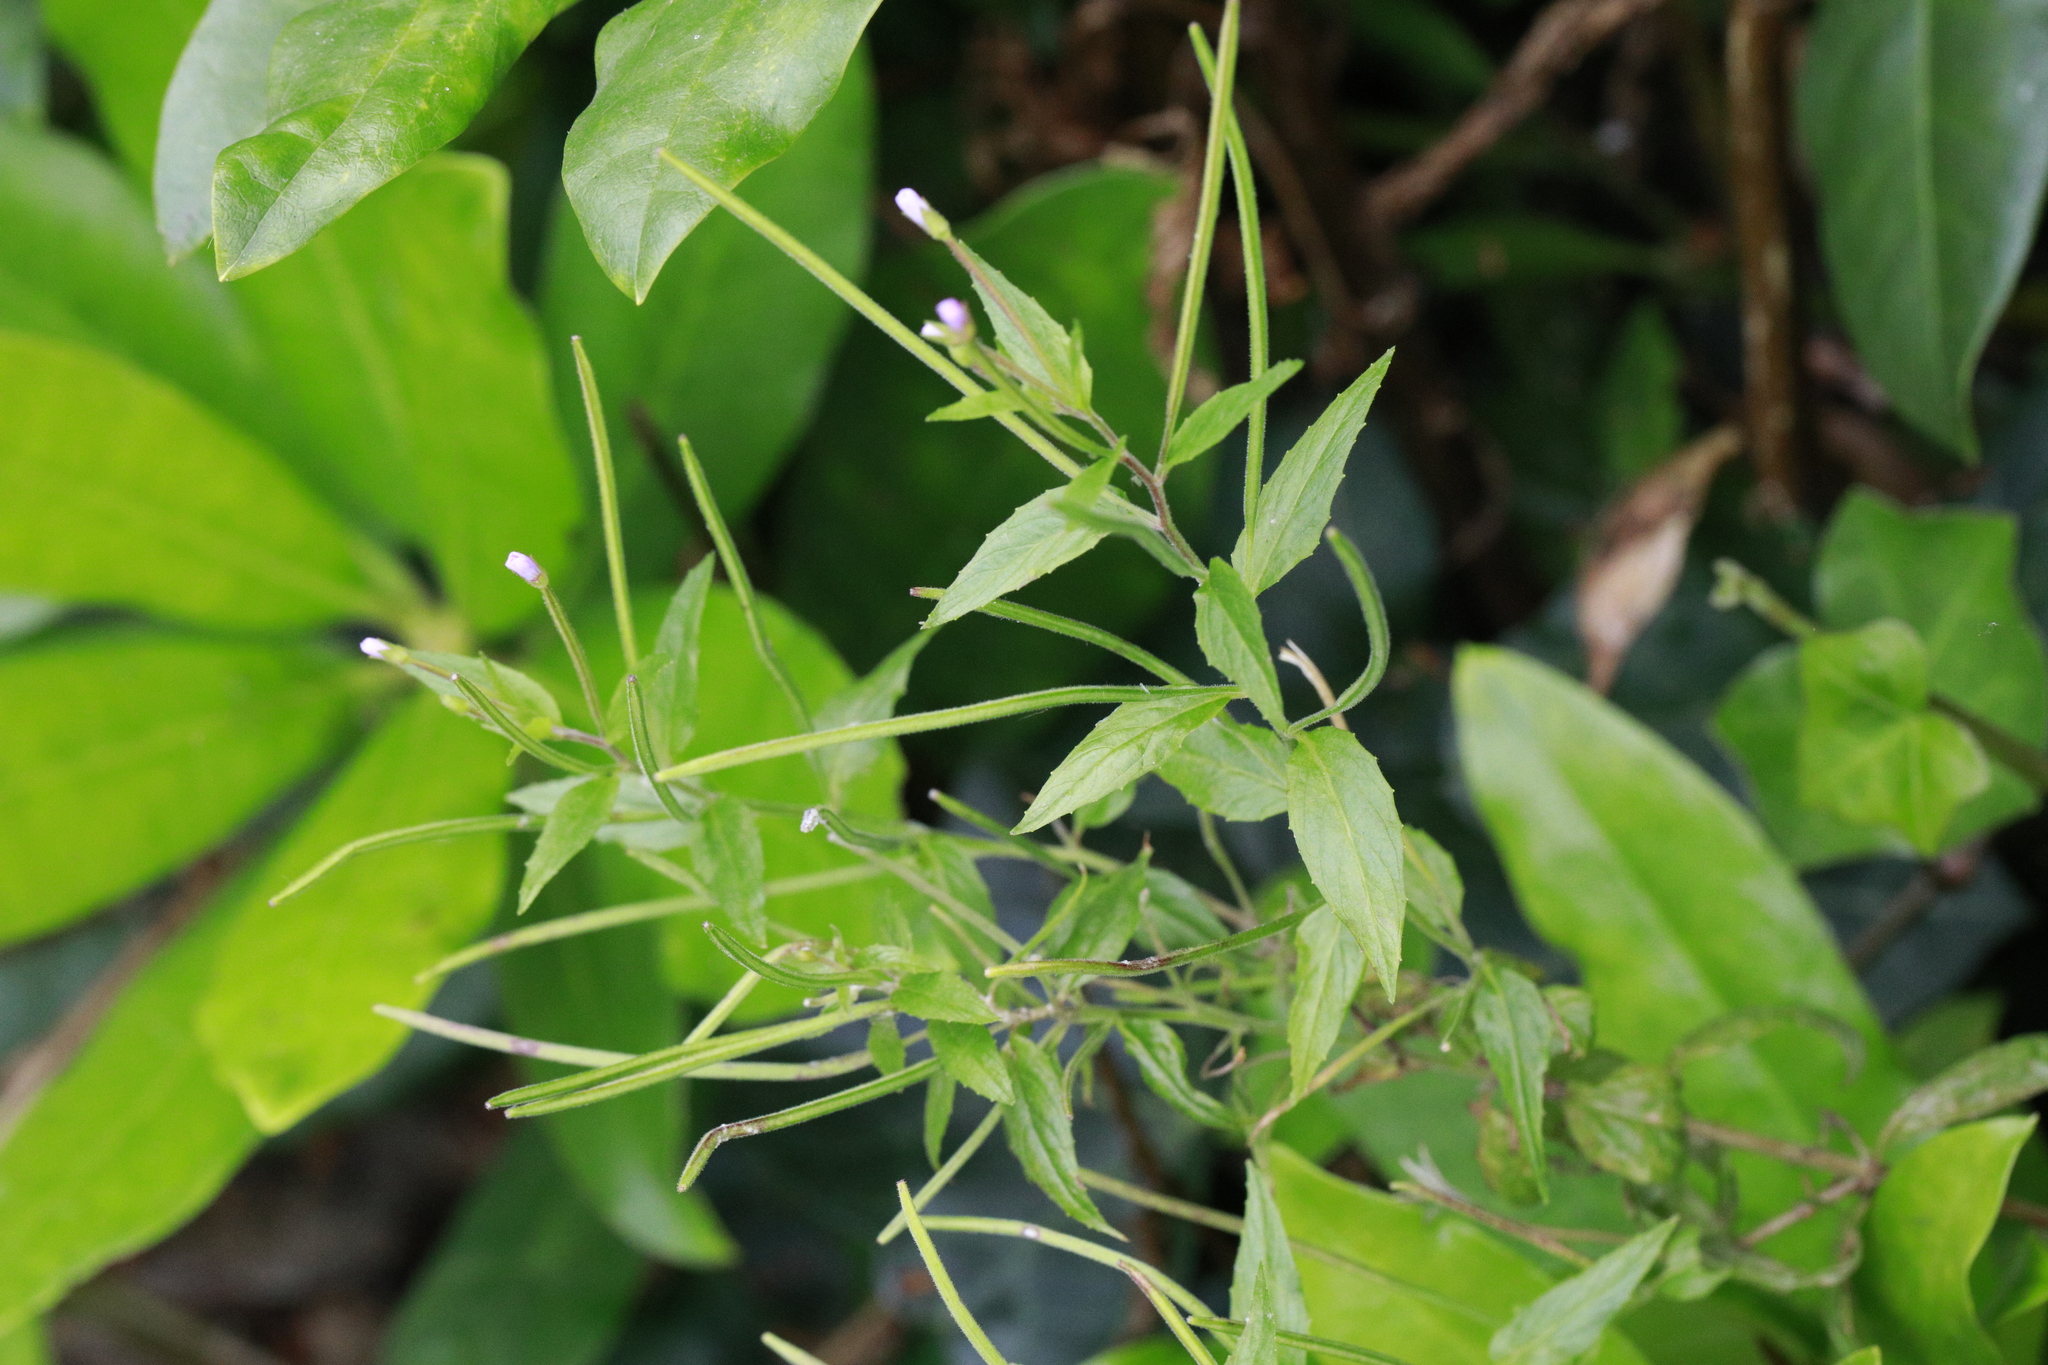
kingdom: Plantae
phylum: Tracheophyta
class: Magnoliopsida
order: Myrtales
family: Onagraceae
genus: Epilobium
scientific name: Epilobium ciliatum
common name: American willowherb
